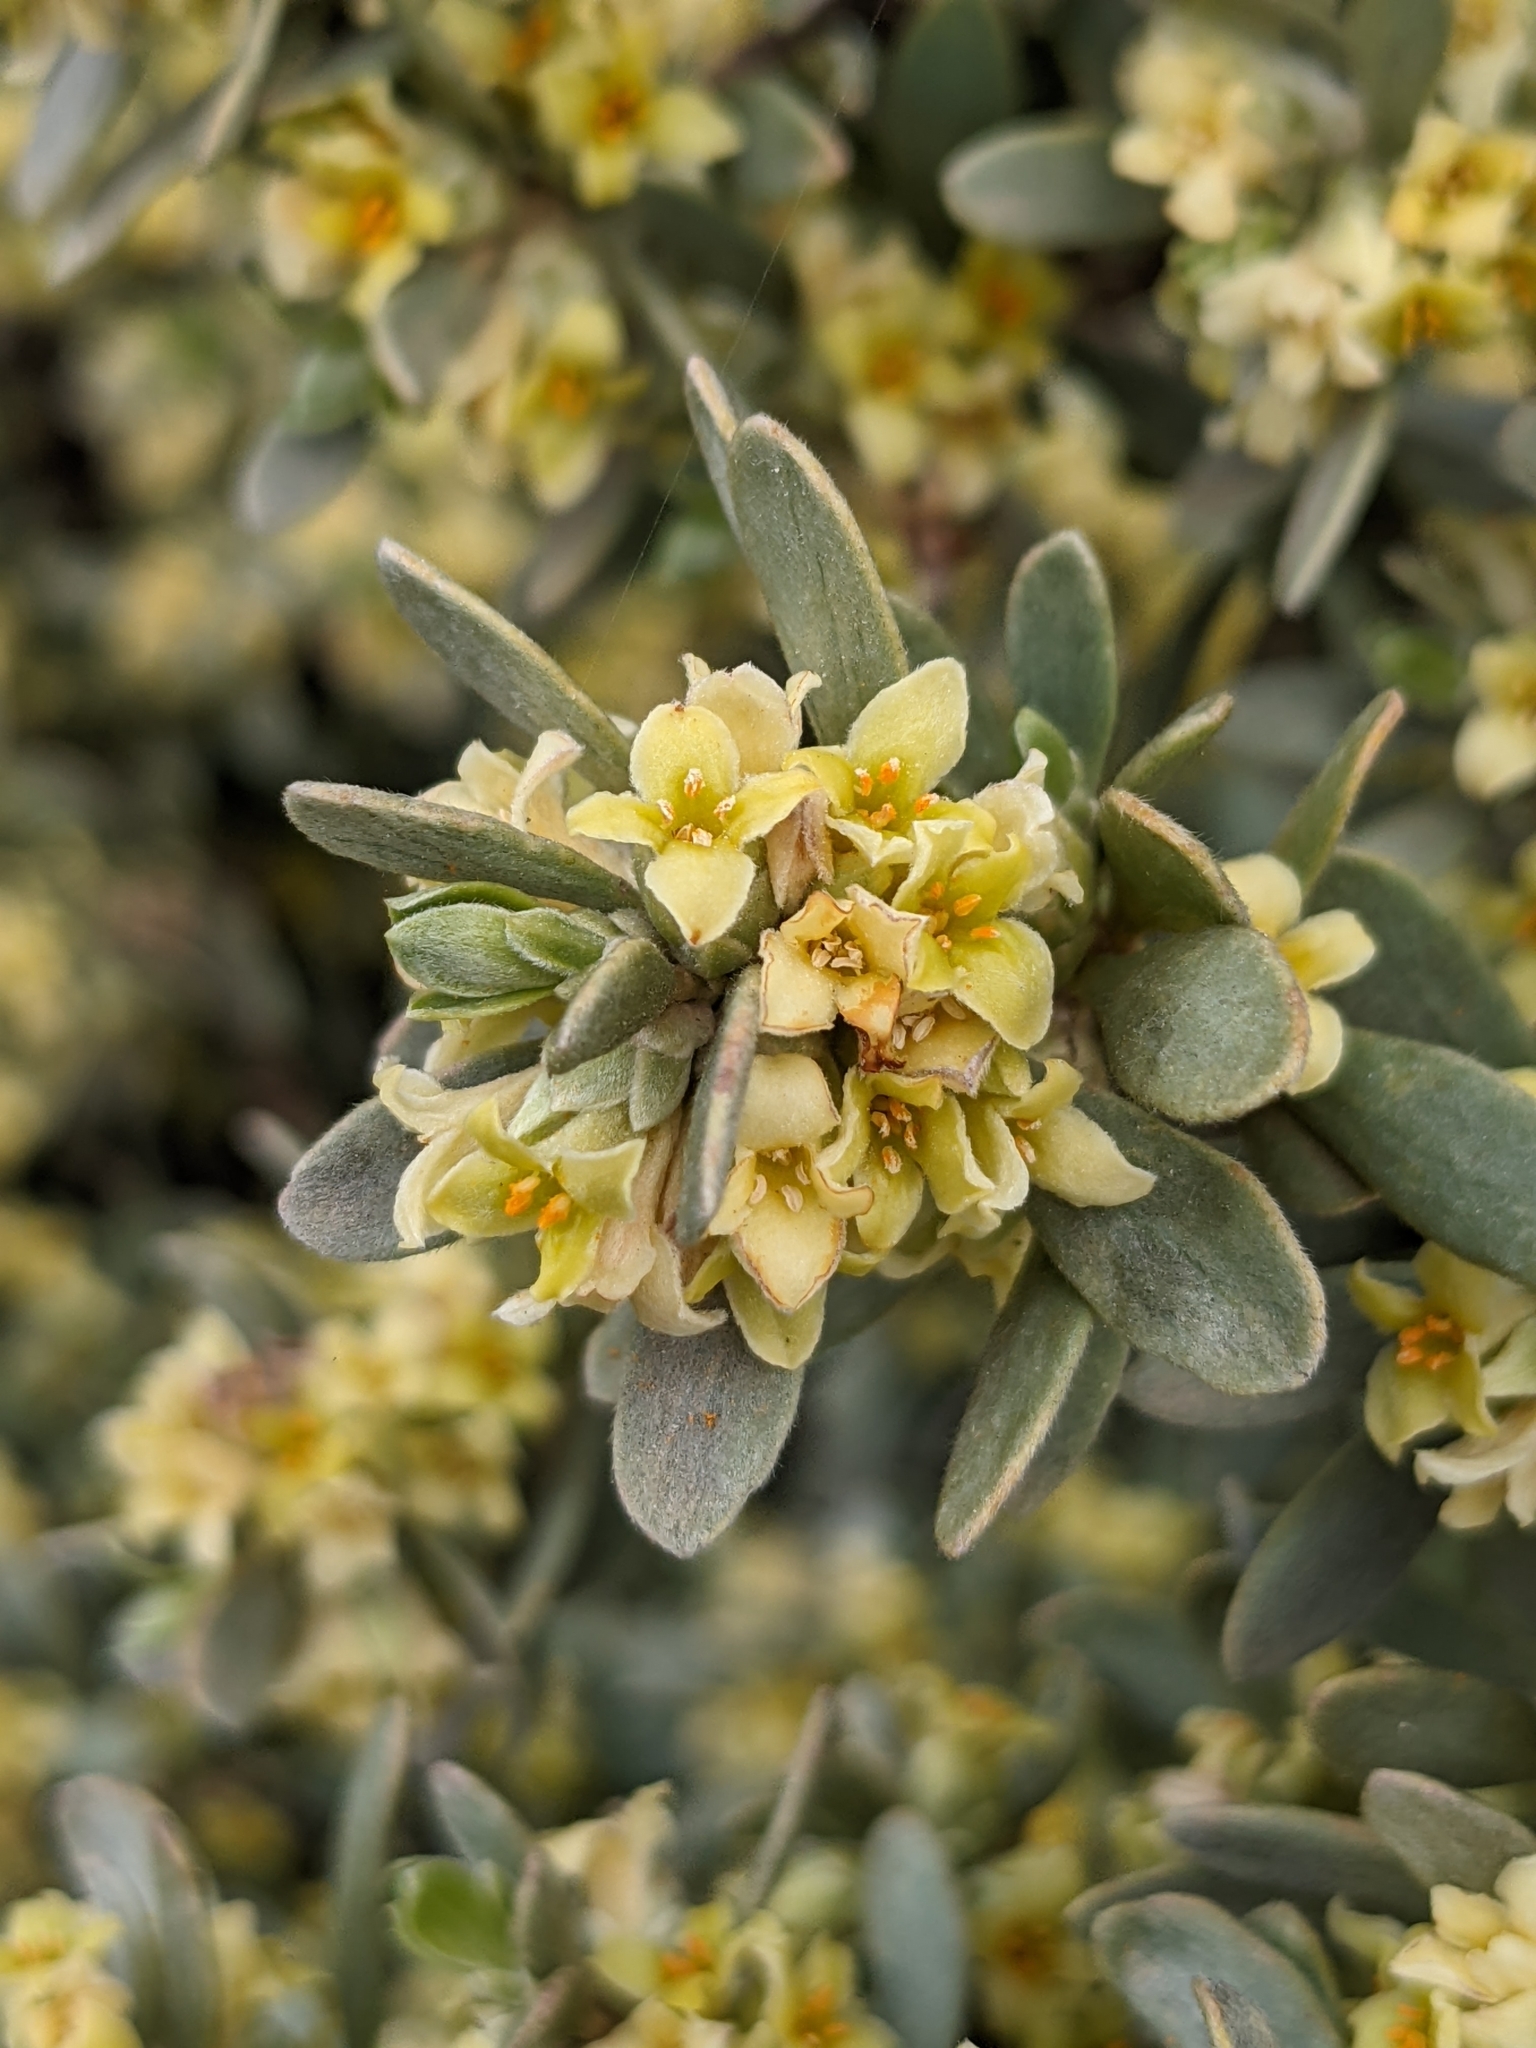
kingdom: Plantae
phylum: Tracheophyta
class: Magnoliopsida
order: Malvales
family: Thymelaeaceae
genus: Thymelaea
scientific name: Thymelaea tartonraira
